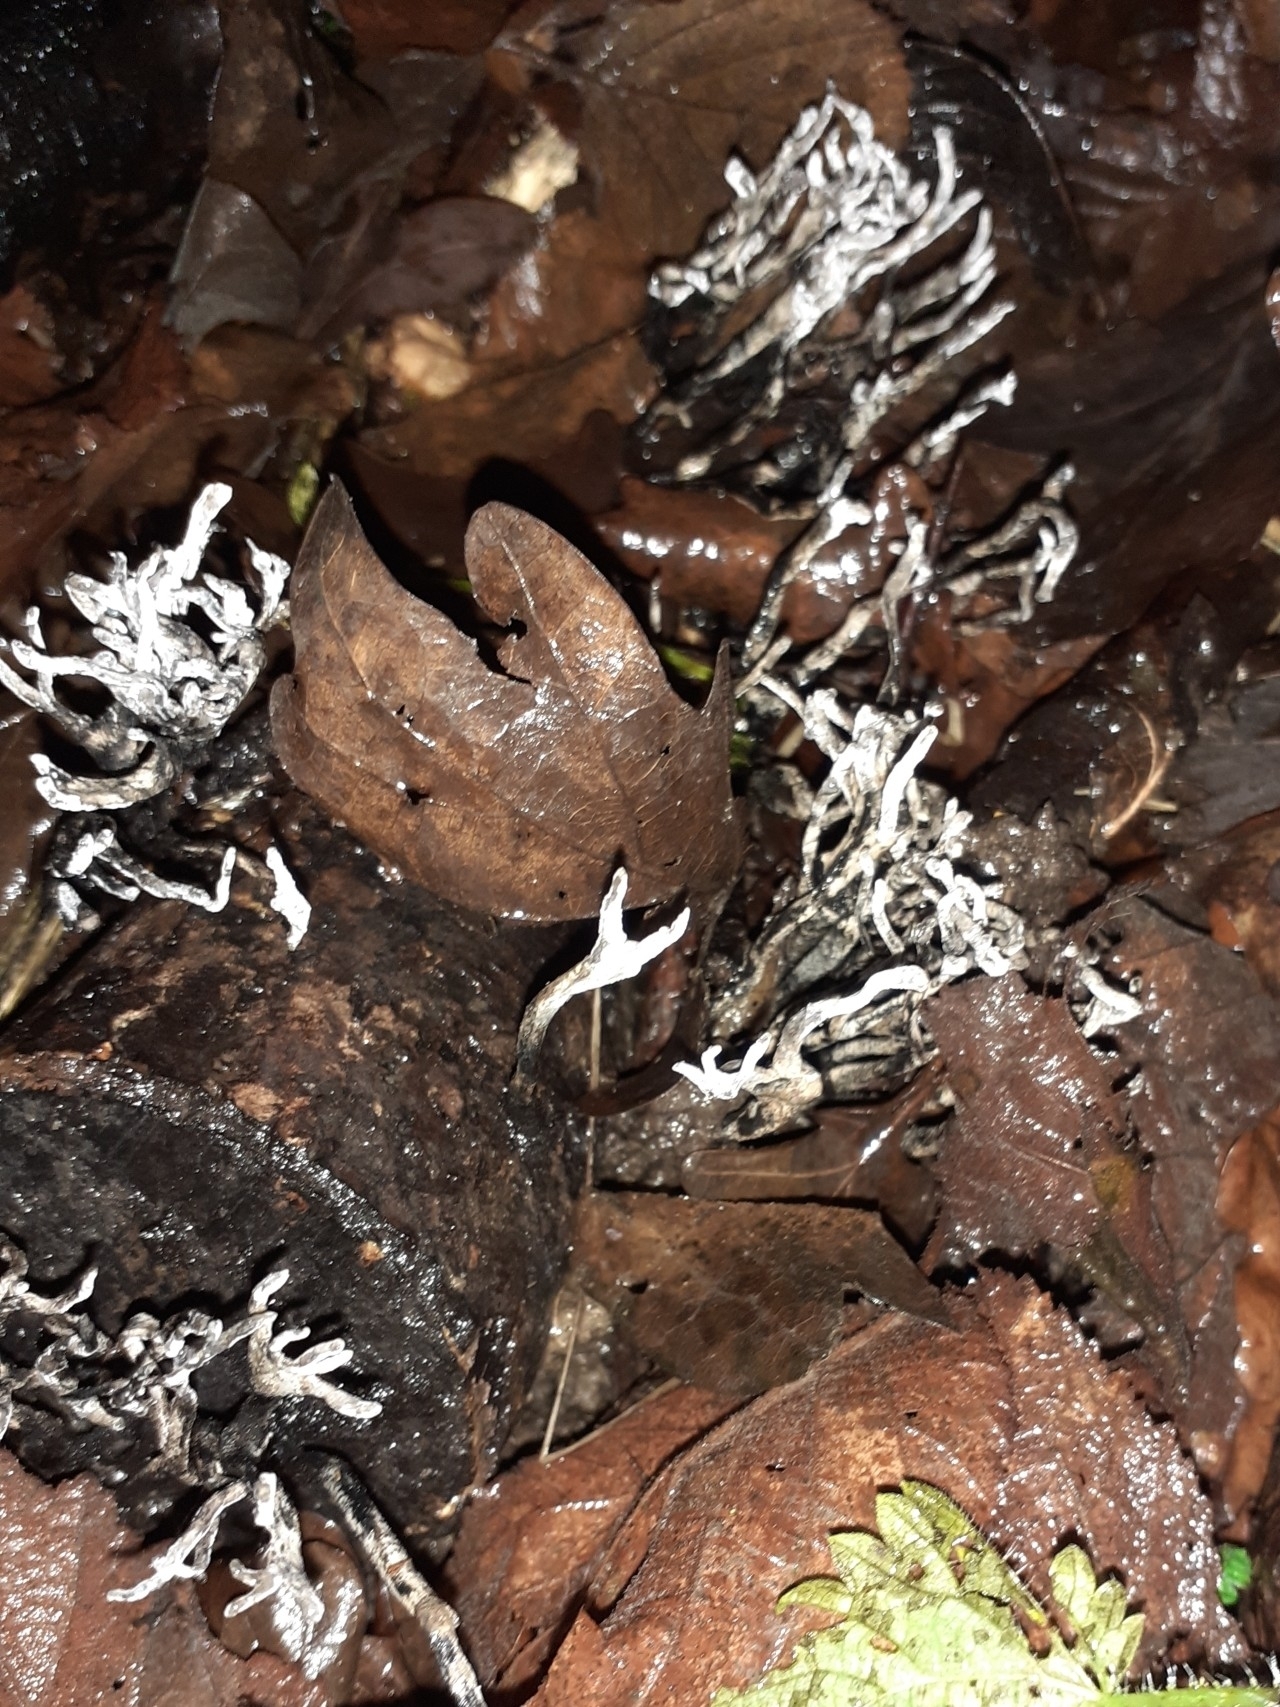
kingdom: Fungi
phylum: Ascomycota
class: Sordariomycetes
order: Xylariales
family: Xylariaceae
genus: Xylaria
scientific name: Xylaria hypoxylon
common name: Candle-snuff fungus
